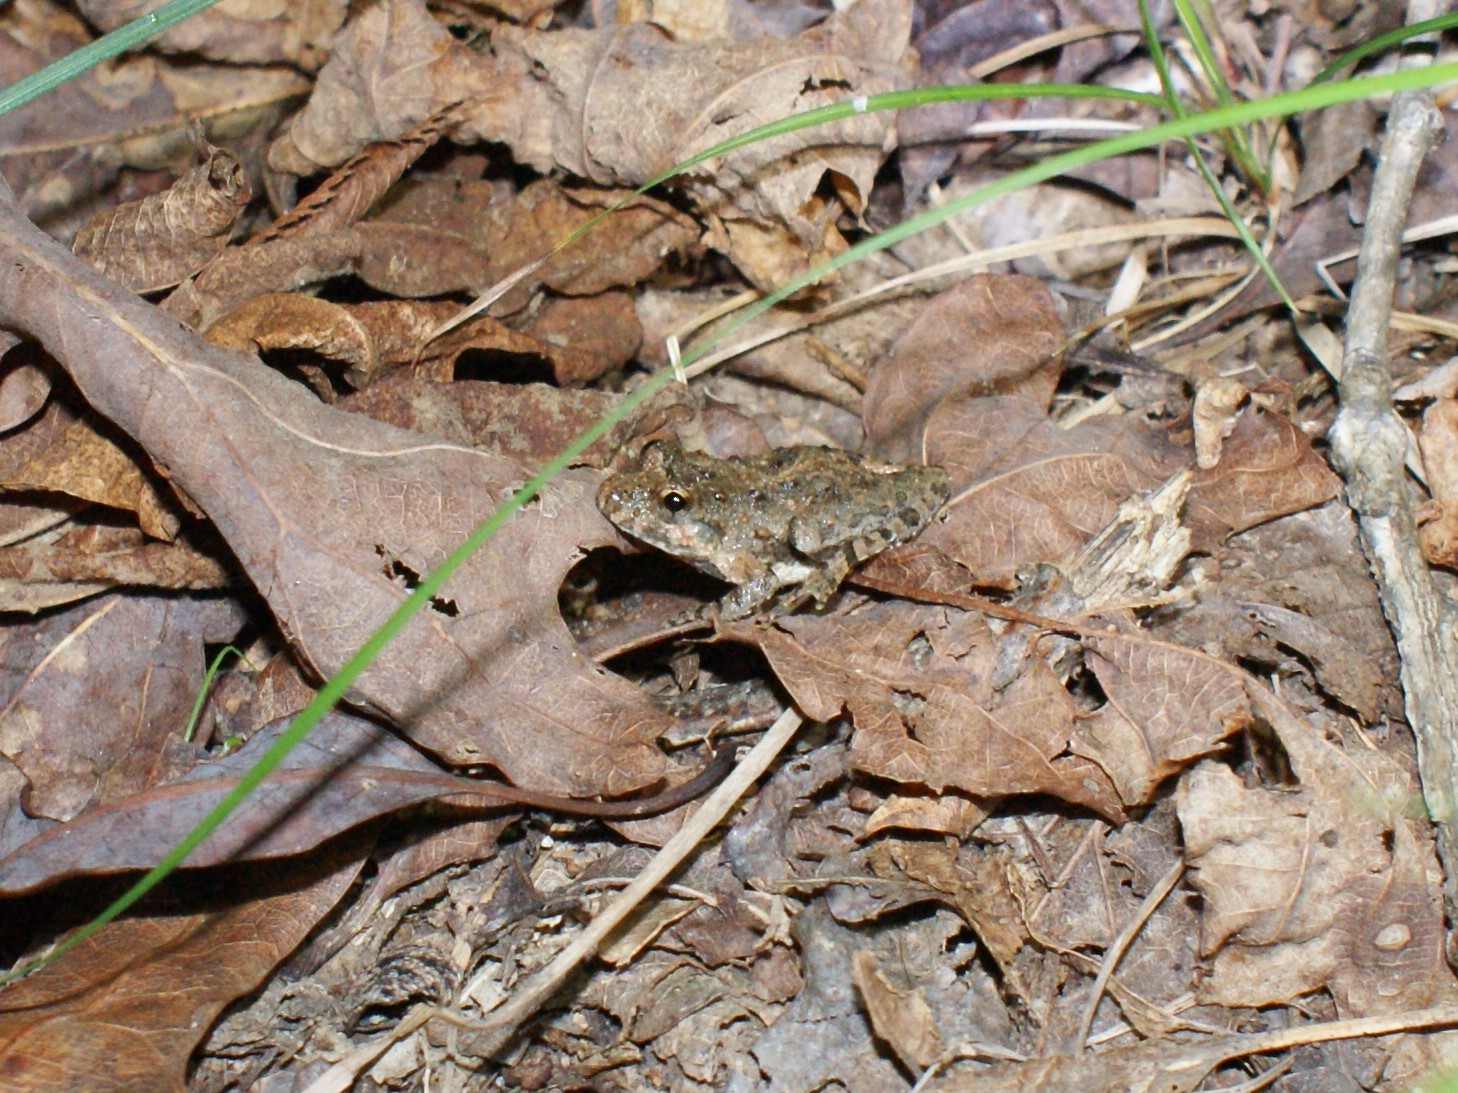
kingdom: Animalia
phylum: Chordata
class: Amphibia
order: Anura
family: Hylidae
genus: Acris
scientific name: Acris crepitans
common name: Northern cricket frog
